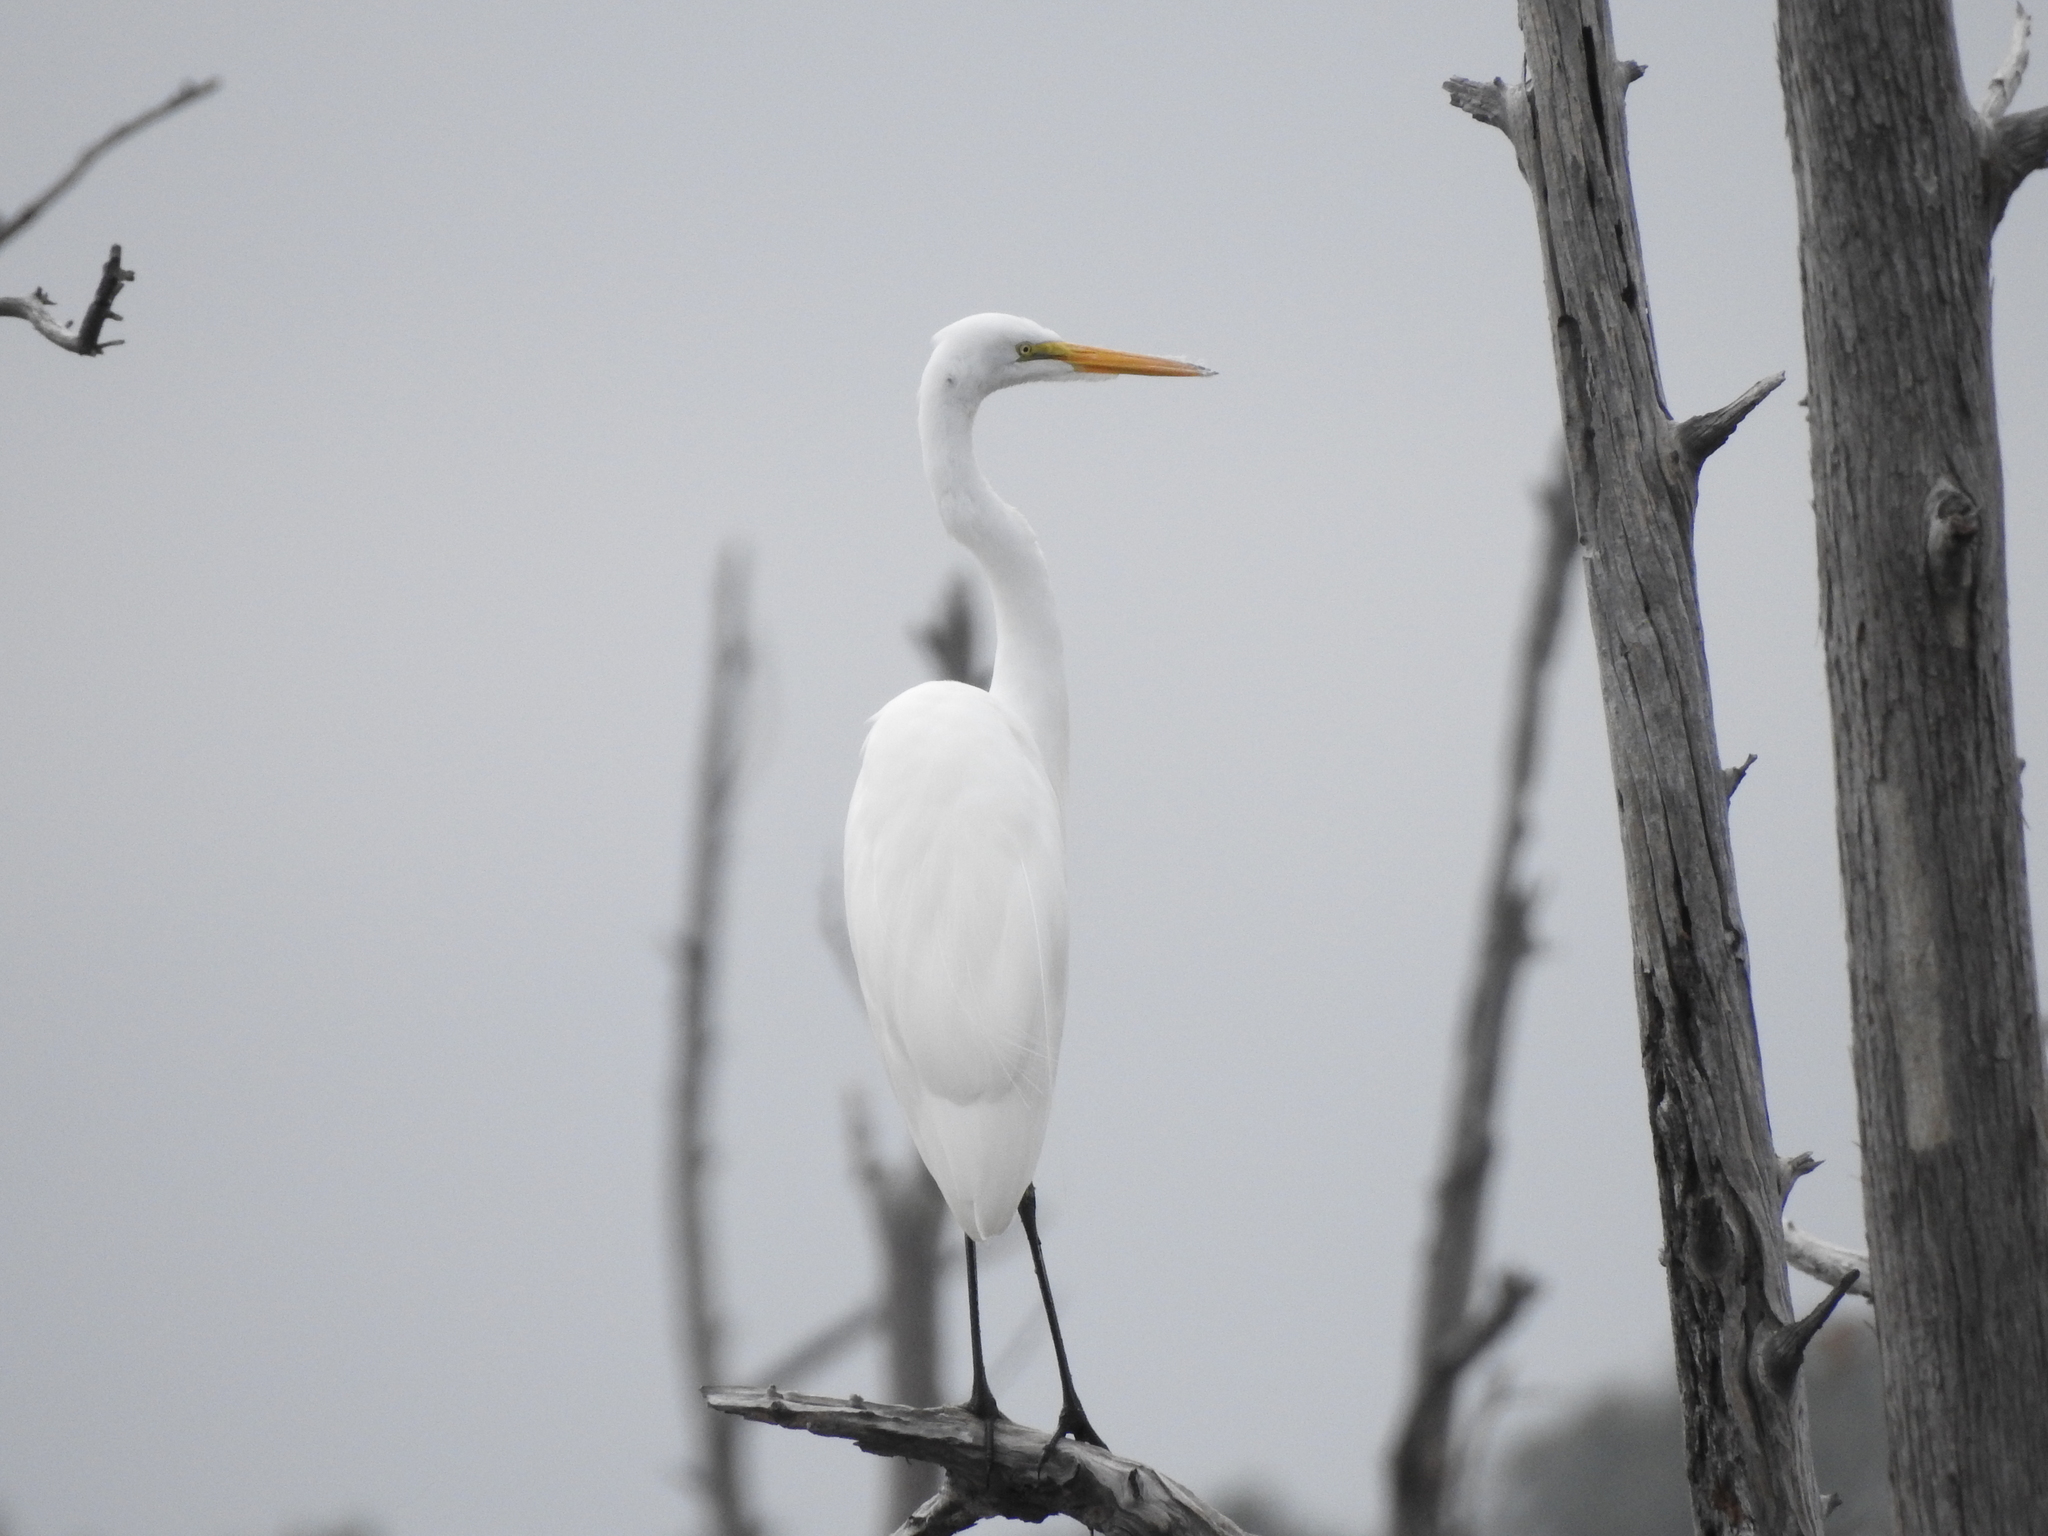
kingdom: Animalia
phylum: Chordata
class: Aves
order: Pelecaniformes
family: Ardeidae
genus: Ardea
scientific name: Ardea alba
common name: Great egret
